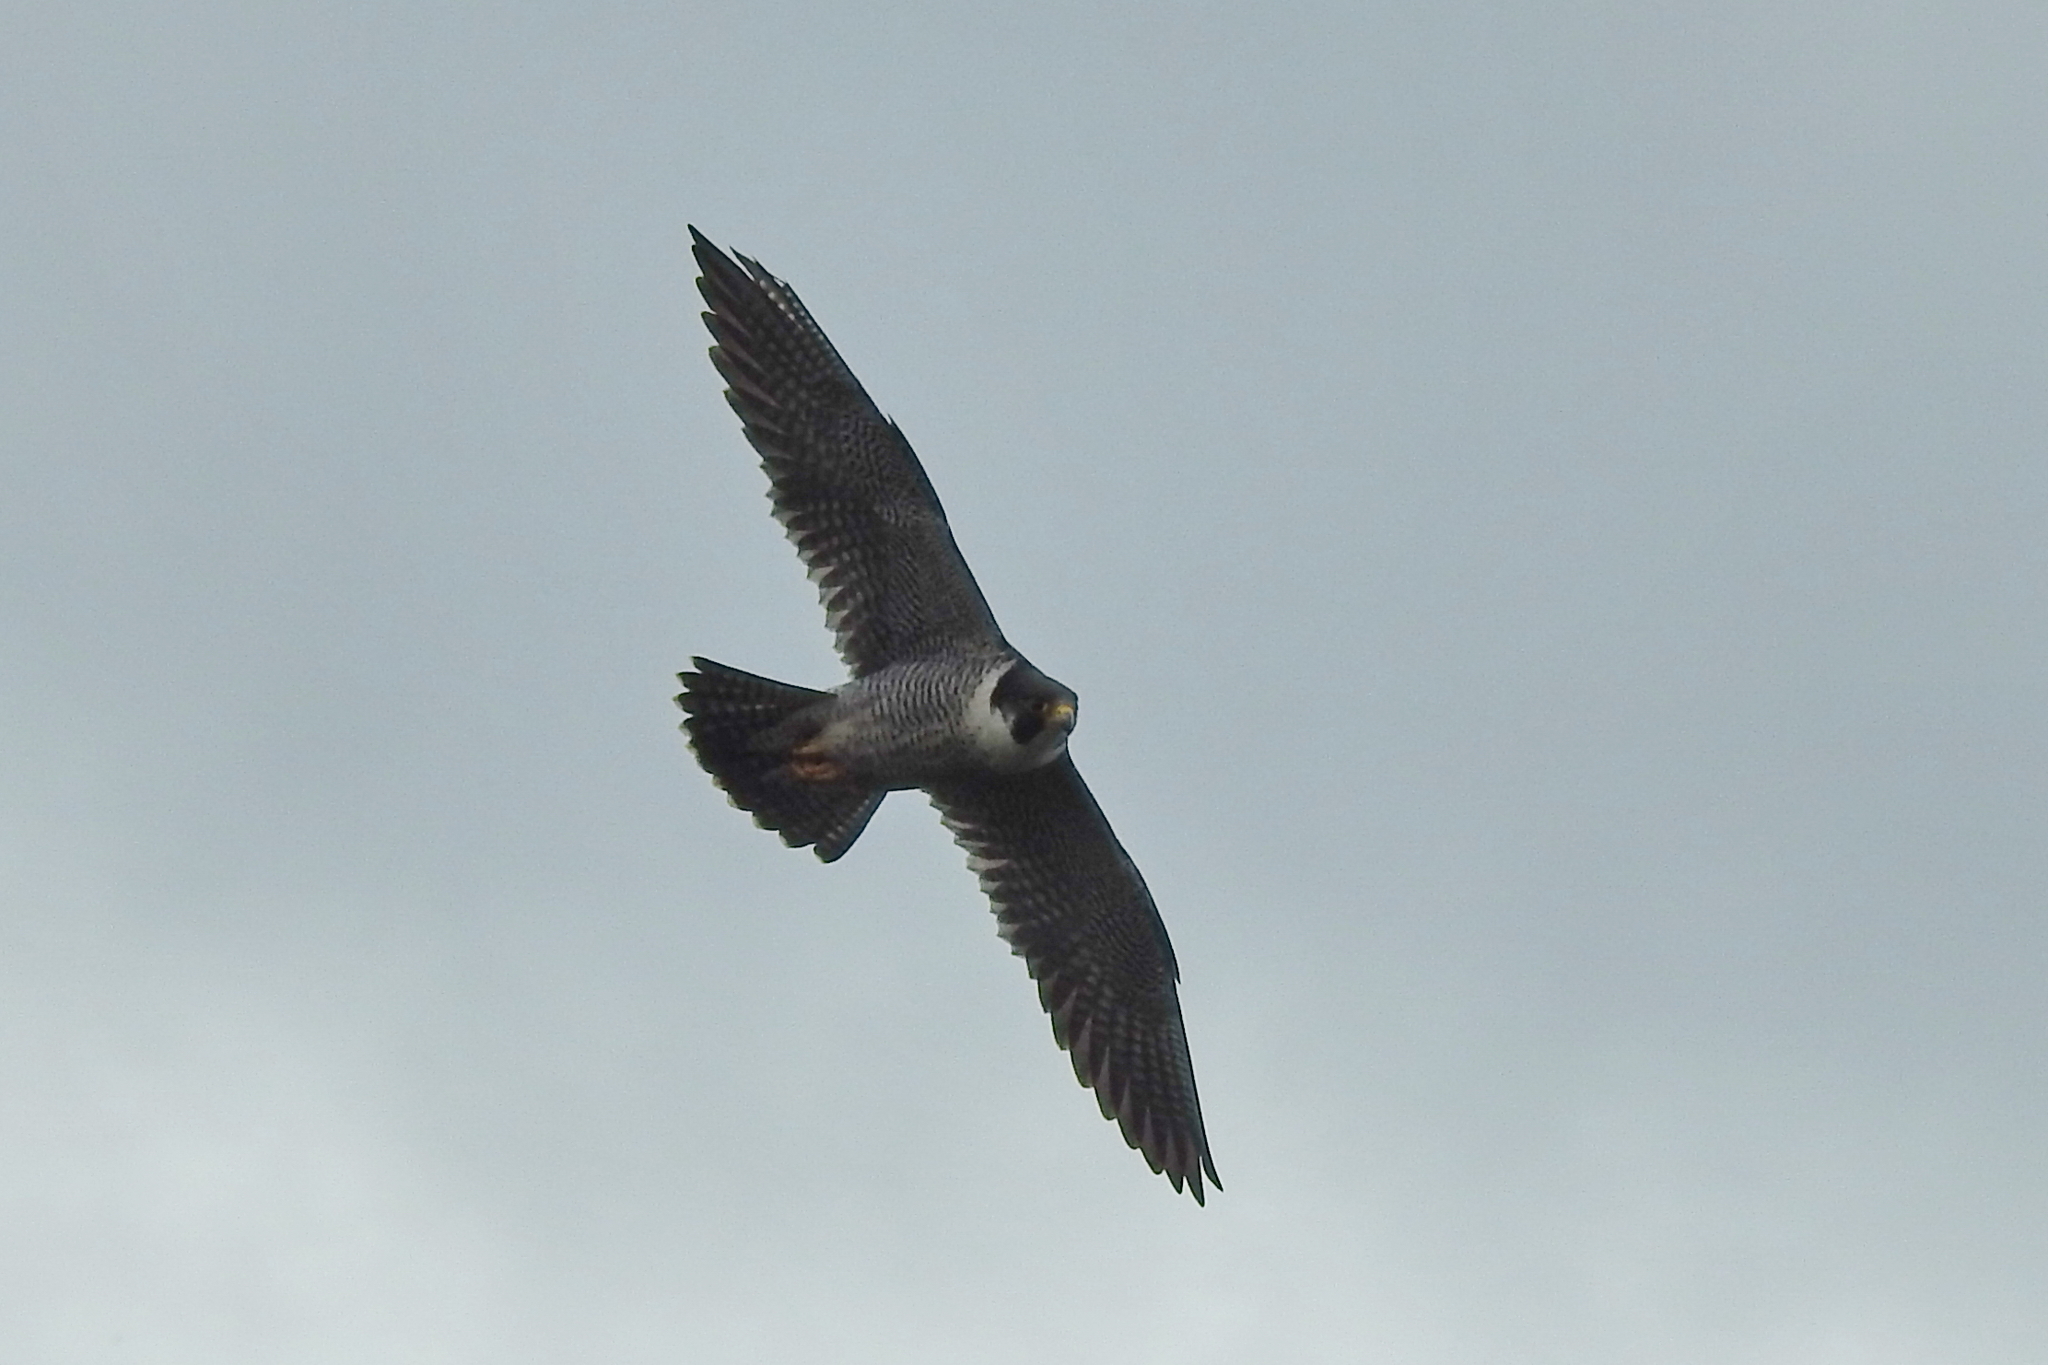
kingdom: Animalia
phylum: Chordata
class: Aves
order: Falconiformes
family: Falconidae
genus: Falco
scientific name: Falco peregrinus
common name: Peregrine falcon
